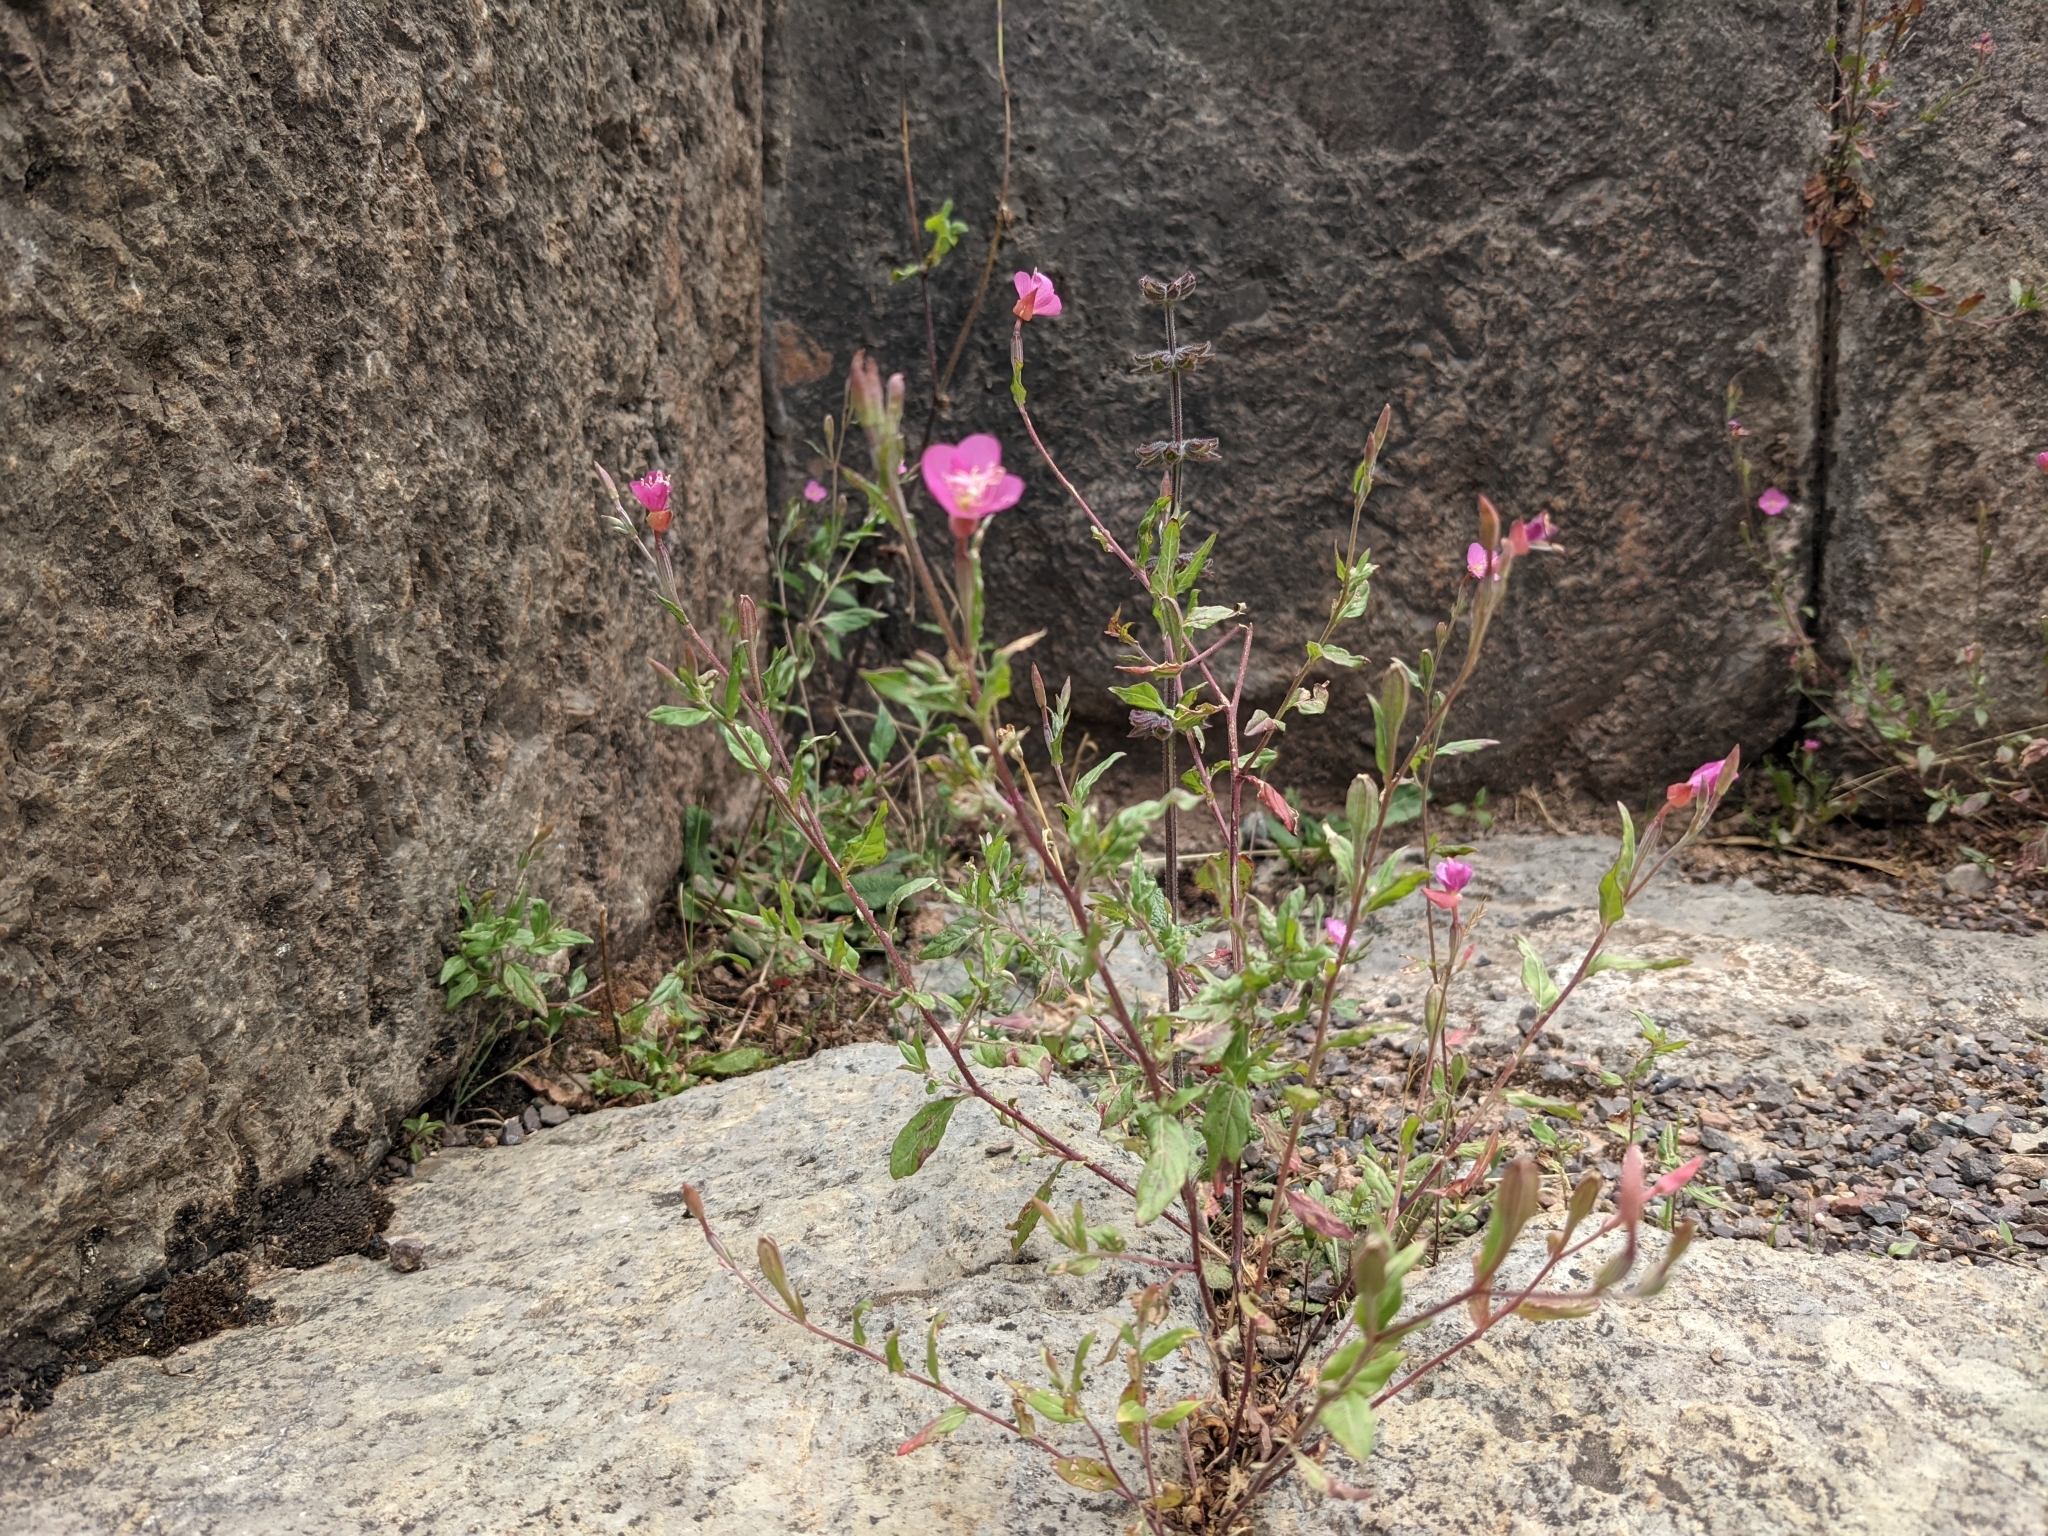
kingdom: Plantae
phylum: Tracheophyta
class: Magnoliopsida
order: Myrtales
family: Onagraceae
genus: Oenothera
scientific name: Oenothera rosea
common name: Rosy evening-primrose
